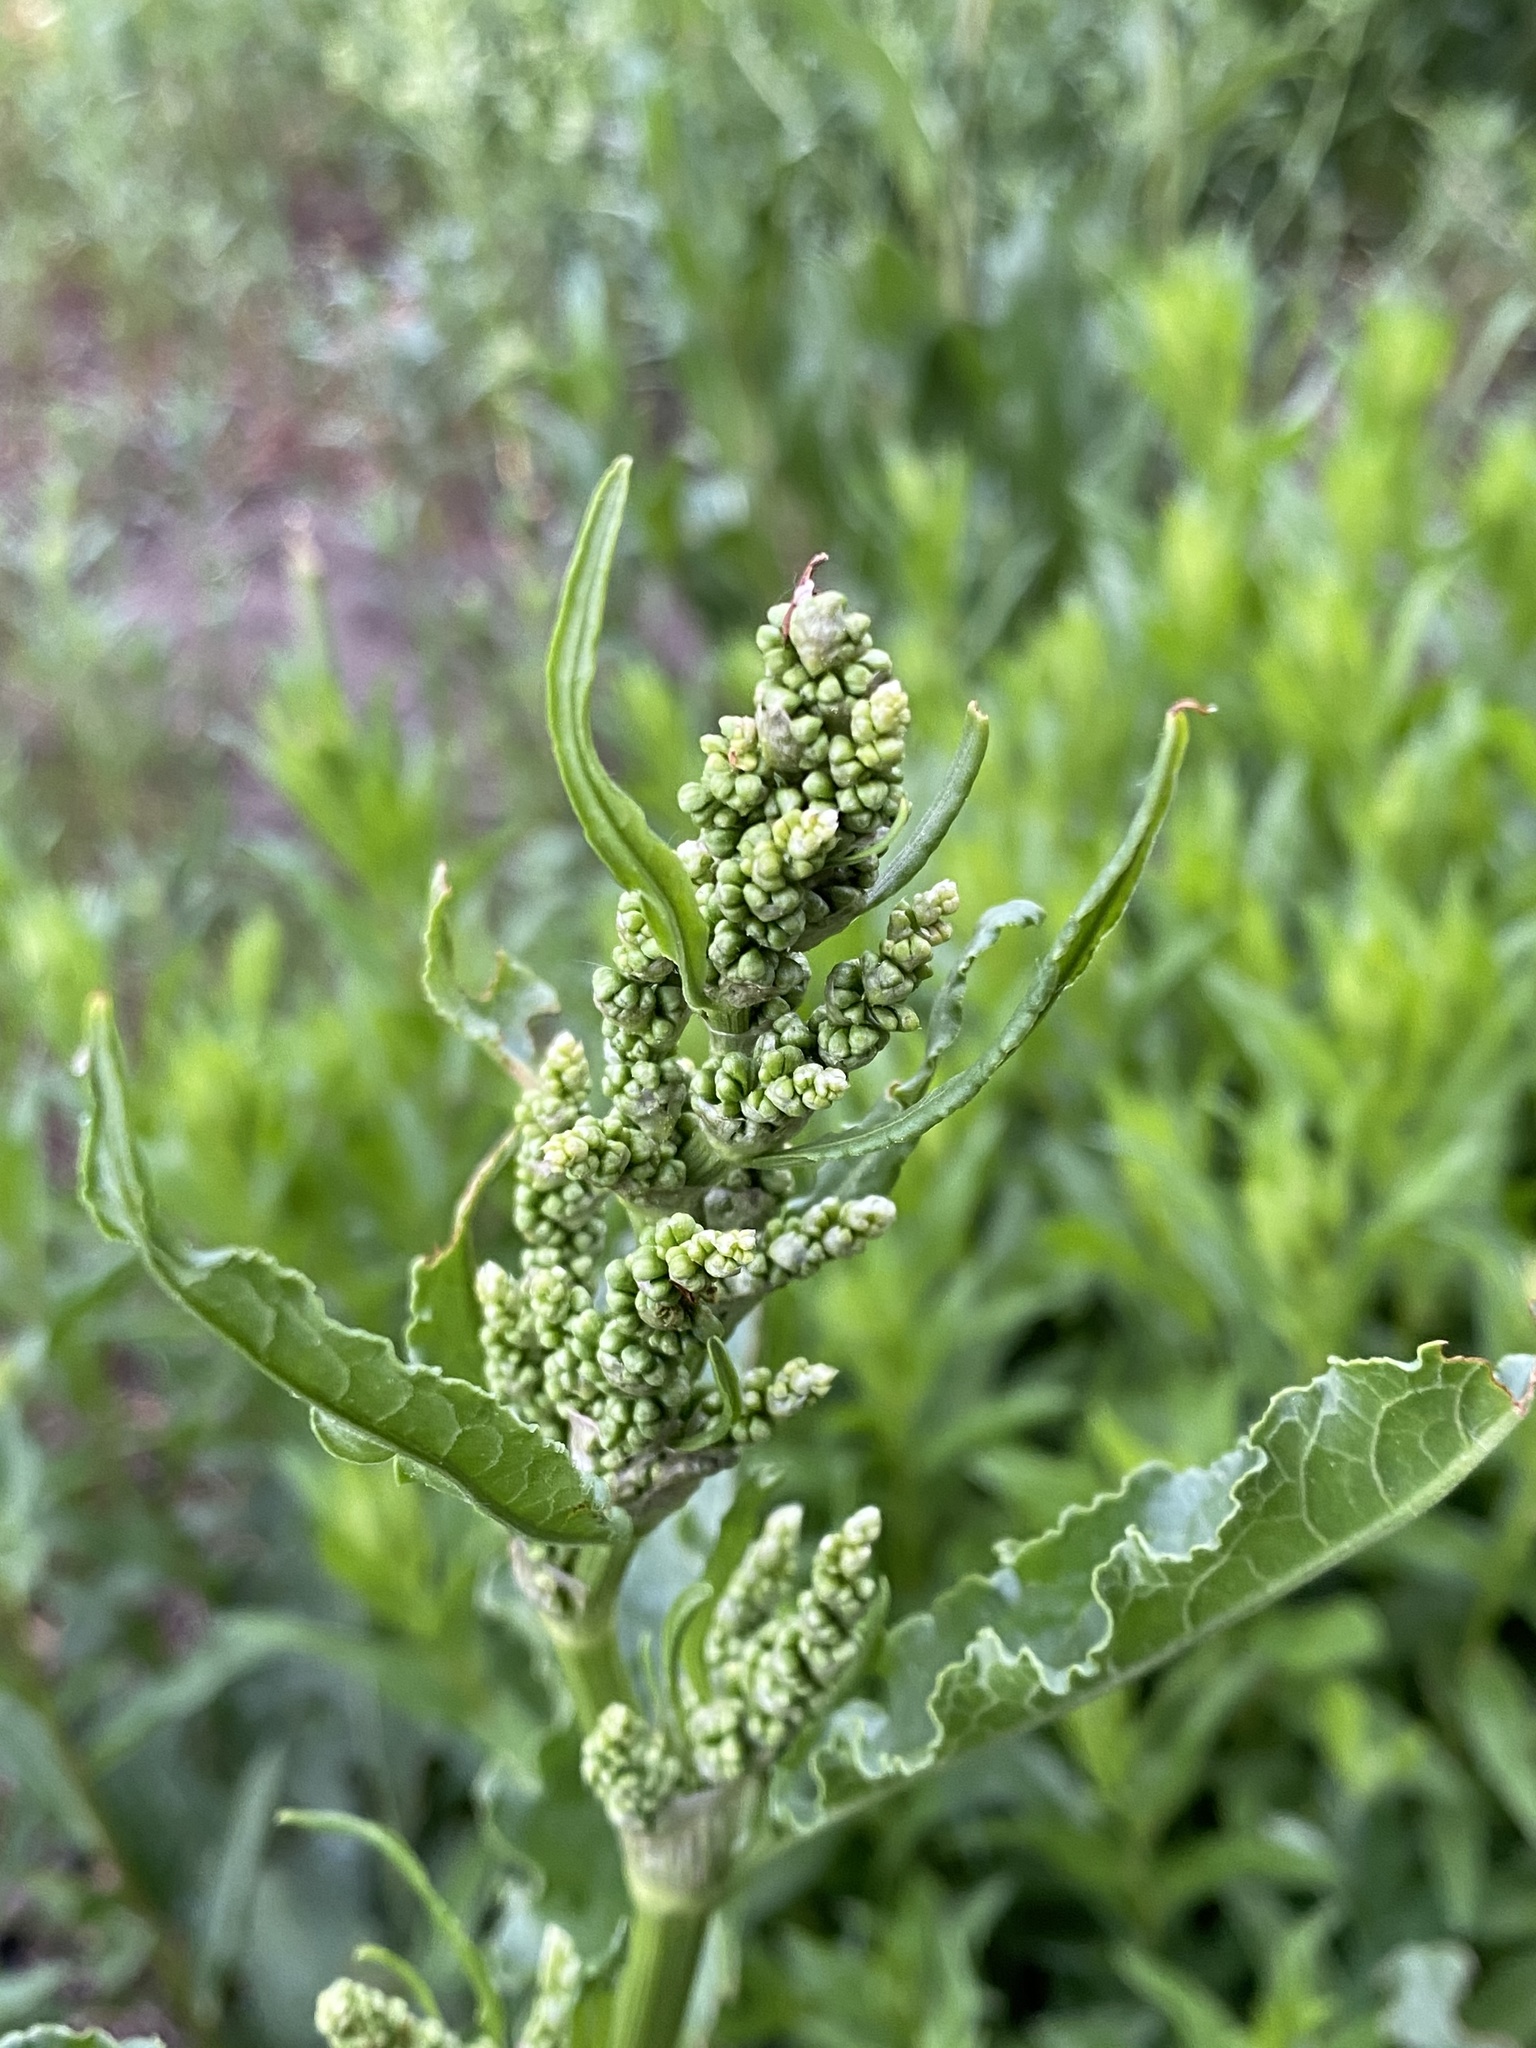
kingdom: Plantae
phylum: Tracheophyta
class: Magnoliopsida
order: Caryophyllales
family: Polygonaceae
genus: Rumex
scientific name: Rumex crispus
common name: Curled dock
